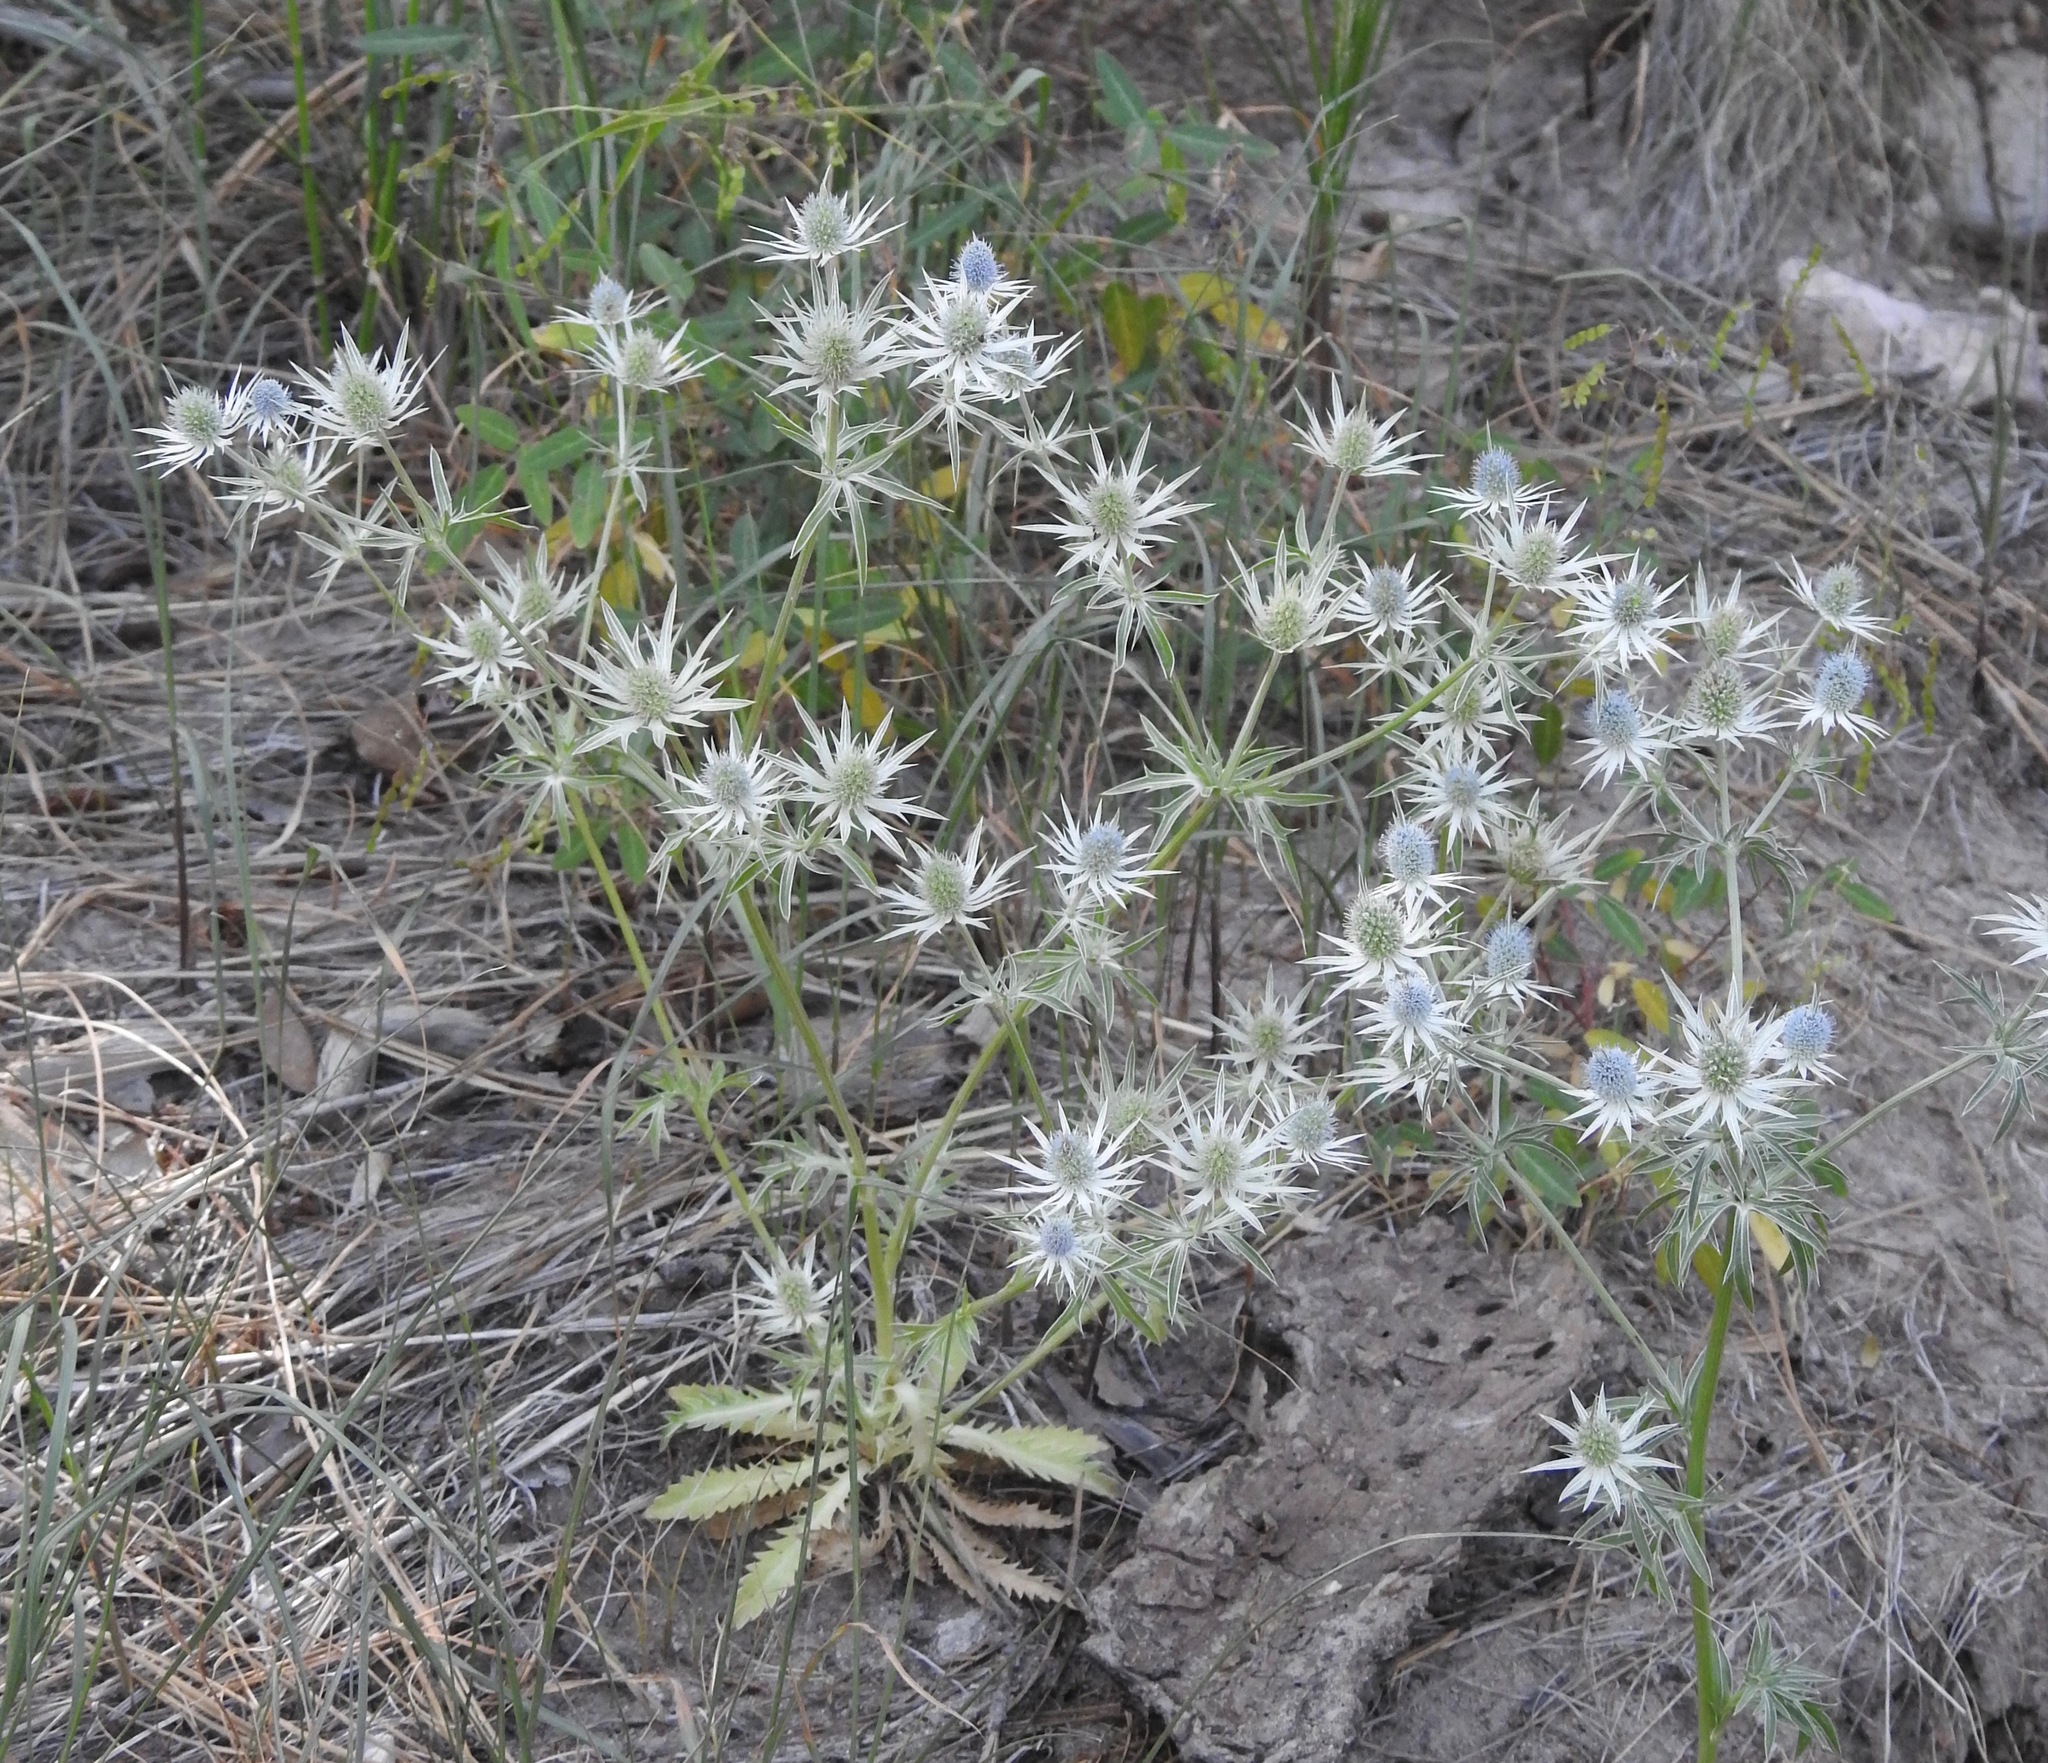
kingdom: Plantae
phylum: Tracheophyta
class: Magnoliopsida
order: Apiales
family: Apiaceae
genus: Eryngium
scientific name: Eryngium heterophyllum
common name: Mexican thistle
